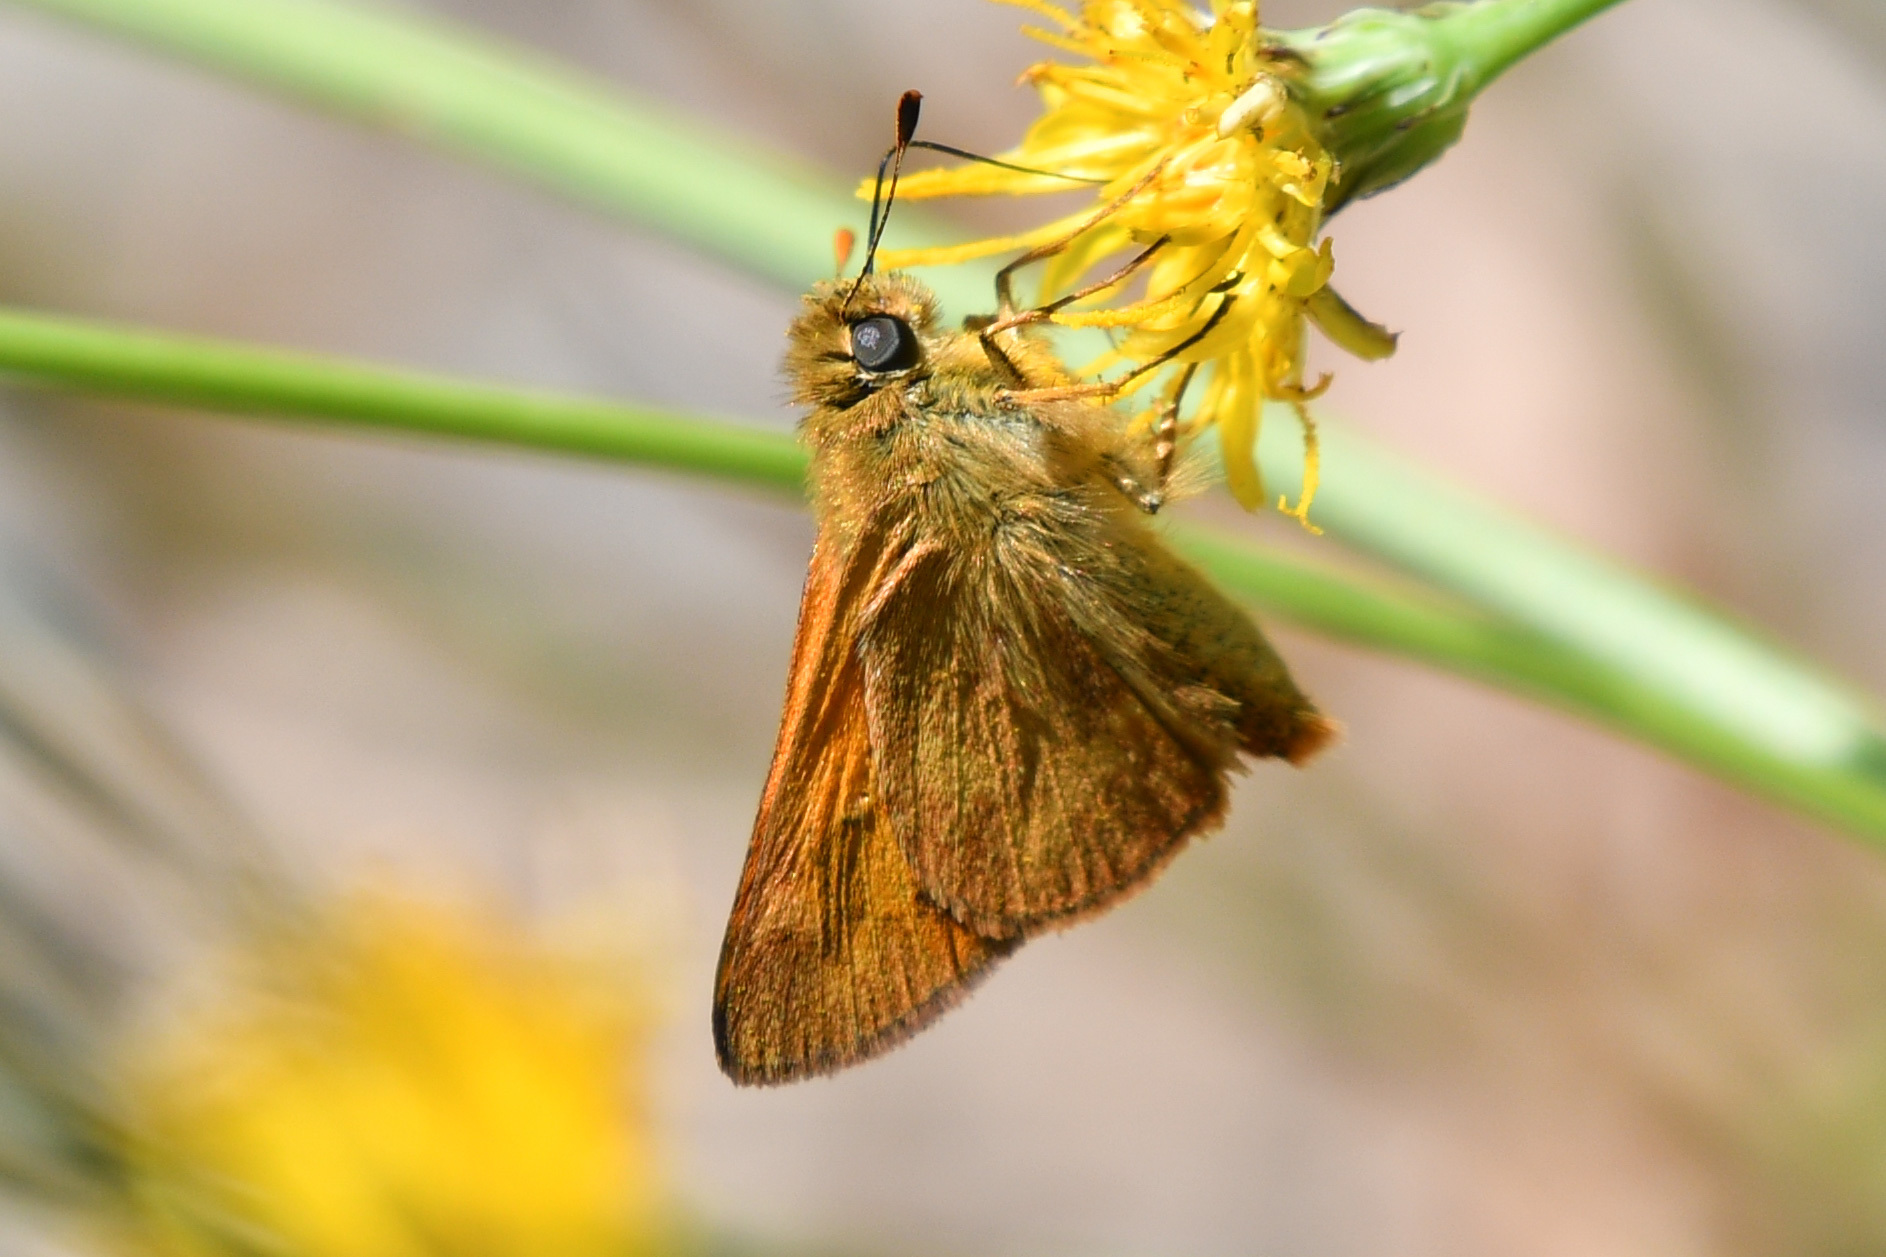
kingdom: Animalia
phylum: Arthropoda
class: Insecta
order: Lepidoptera
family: Hesperiidae
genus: Ochlodes
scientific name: Ochlodes sylvanoides
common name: Woodland skipper
